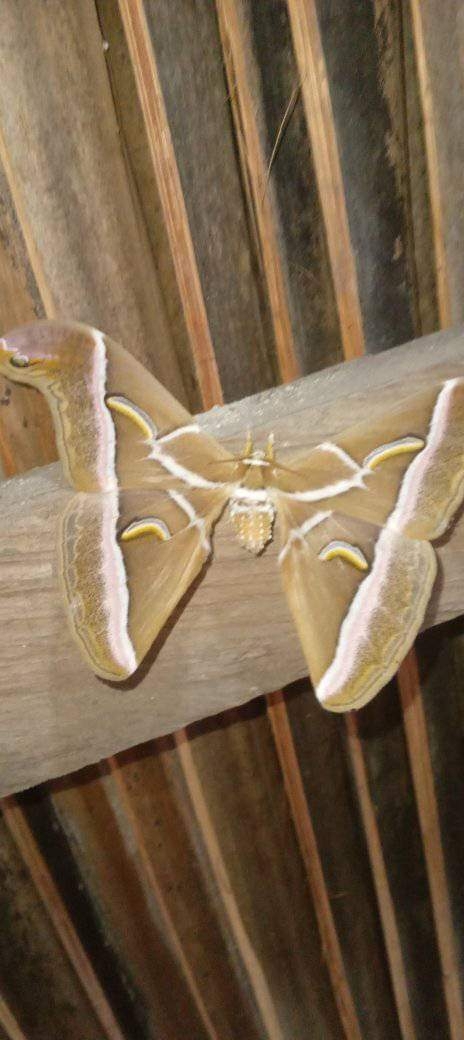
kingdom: Animalia
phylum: Arthropoda
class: Insecta
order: Lepidoptera
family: Saturniidae
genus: Samia
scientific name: Samia kikibudiamini
